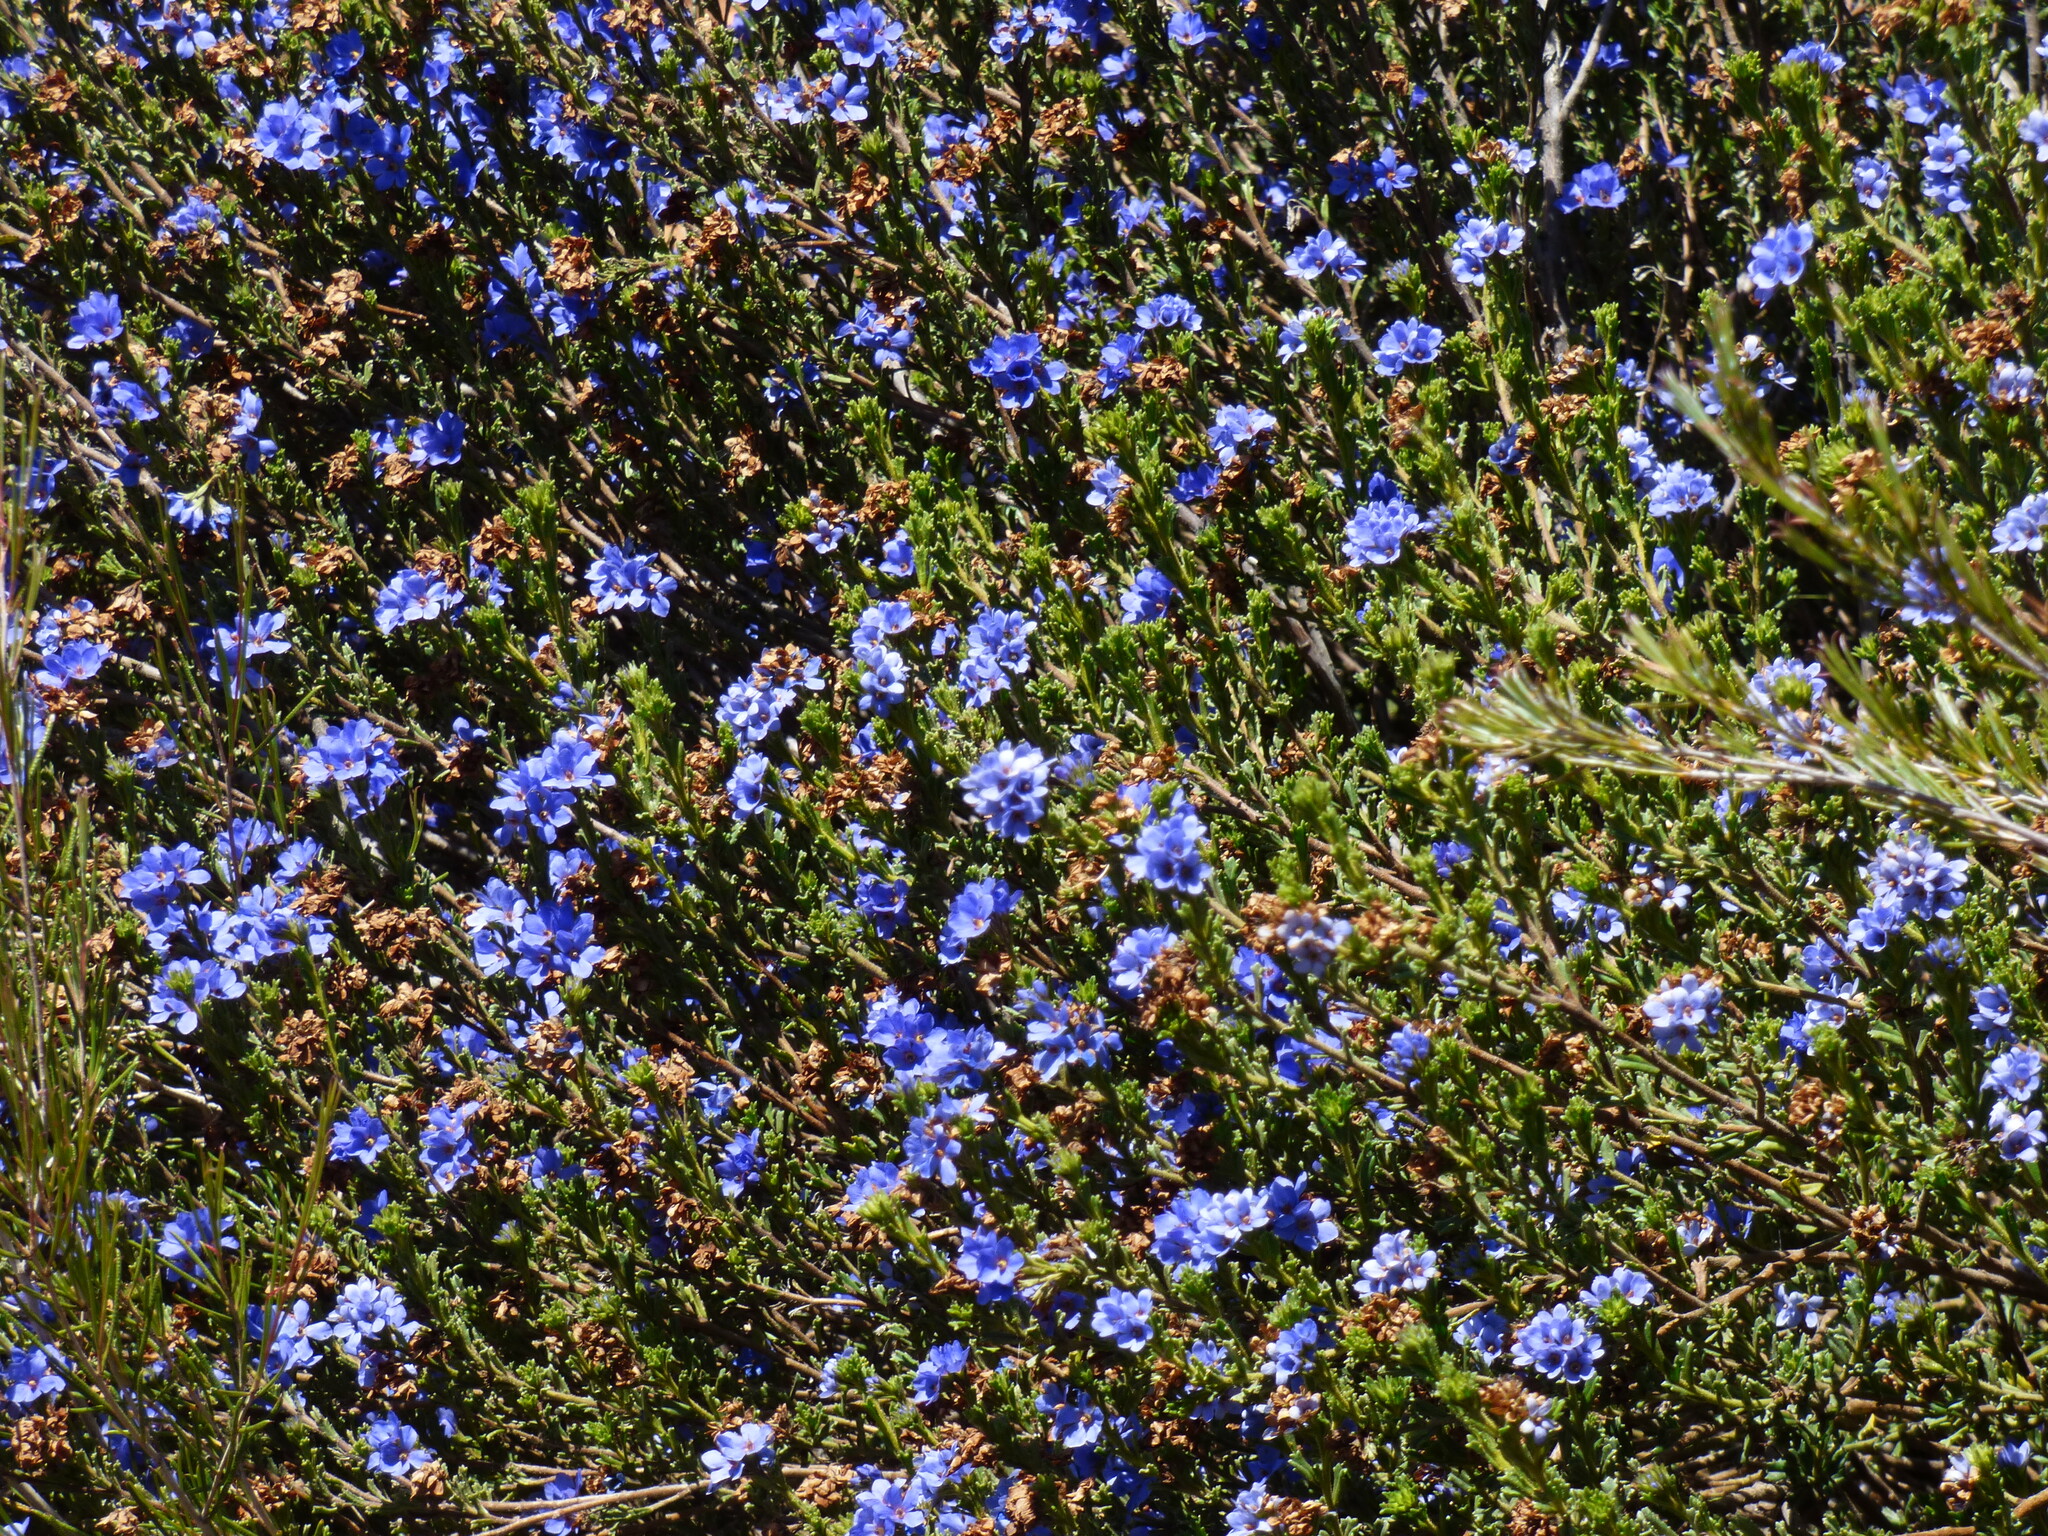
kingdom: Plantae
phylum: Tracheophyta
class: Magnoliopsida
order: Boraginales
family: Ehretiaceae
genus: Halgania
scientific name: Halgania cyanea
